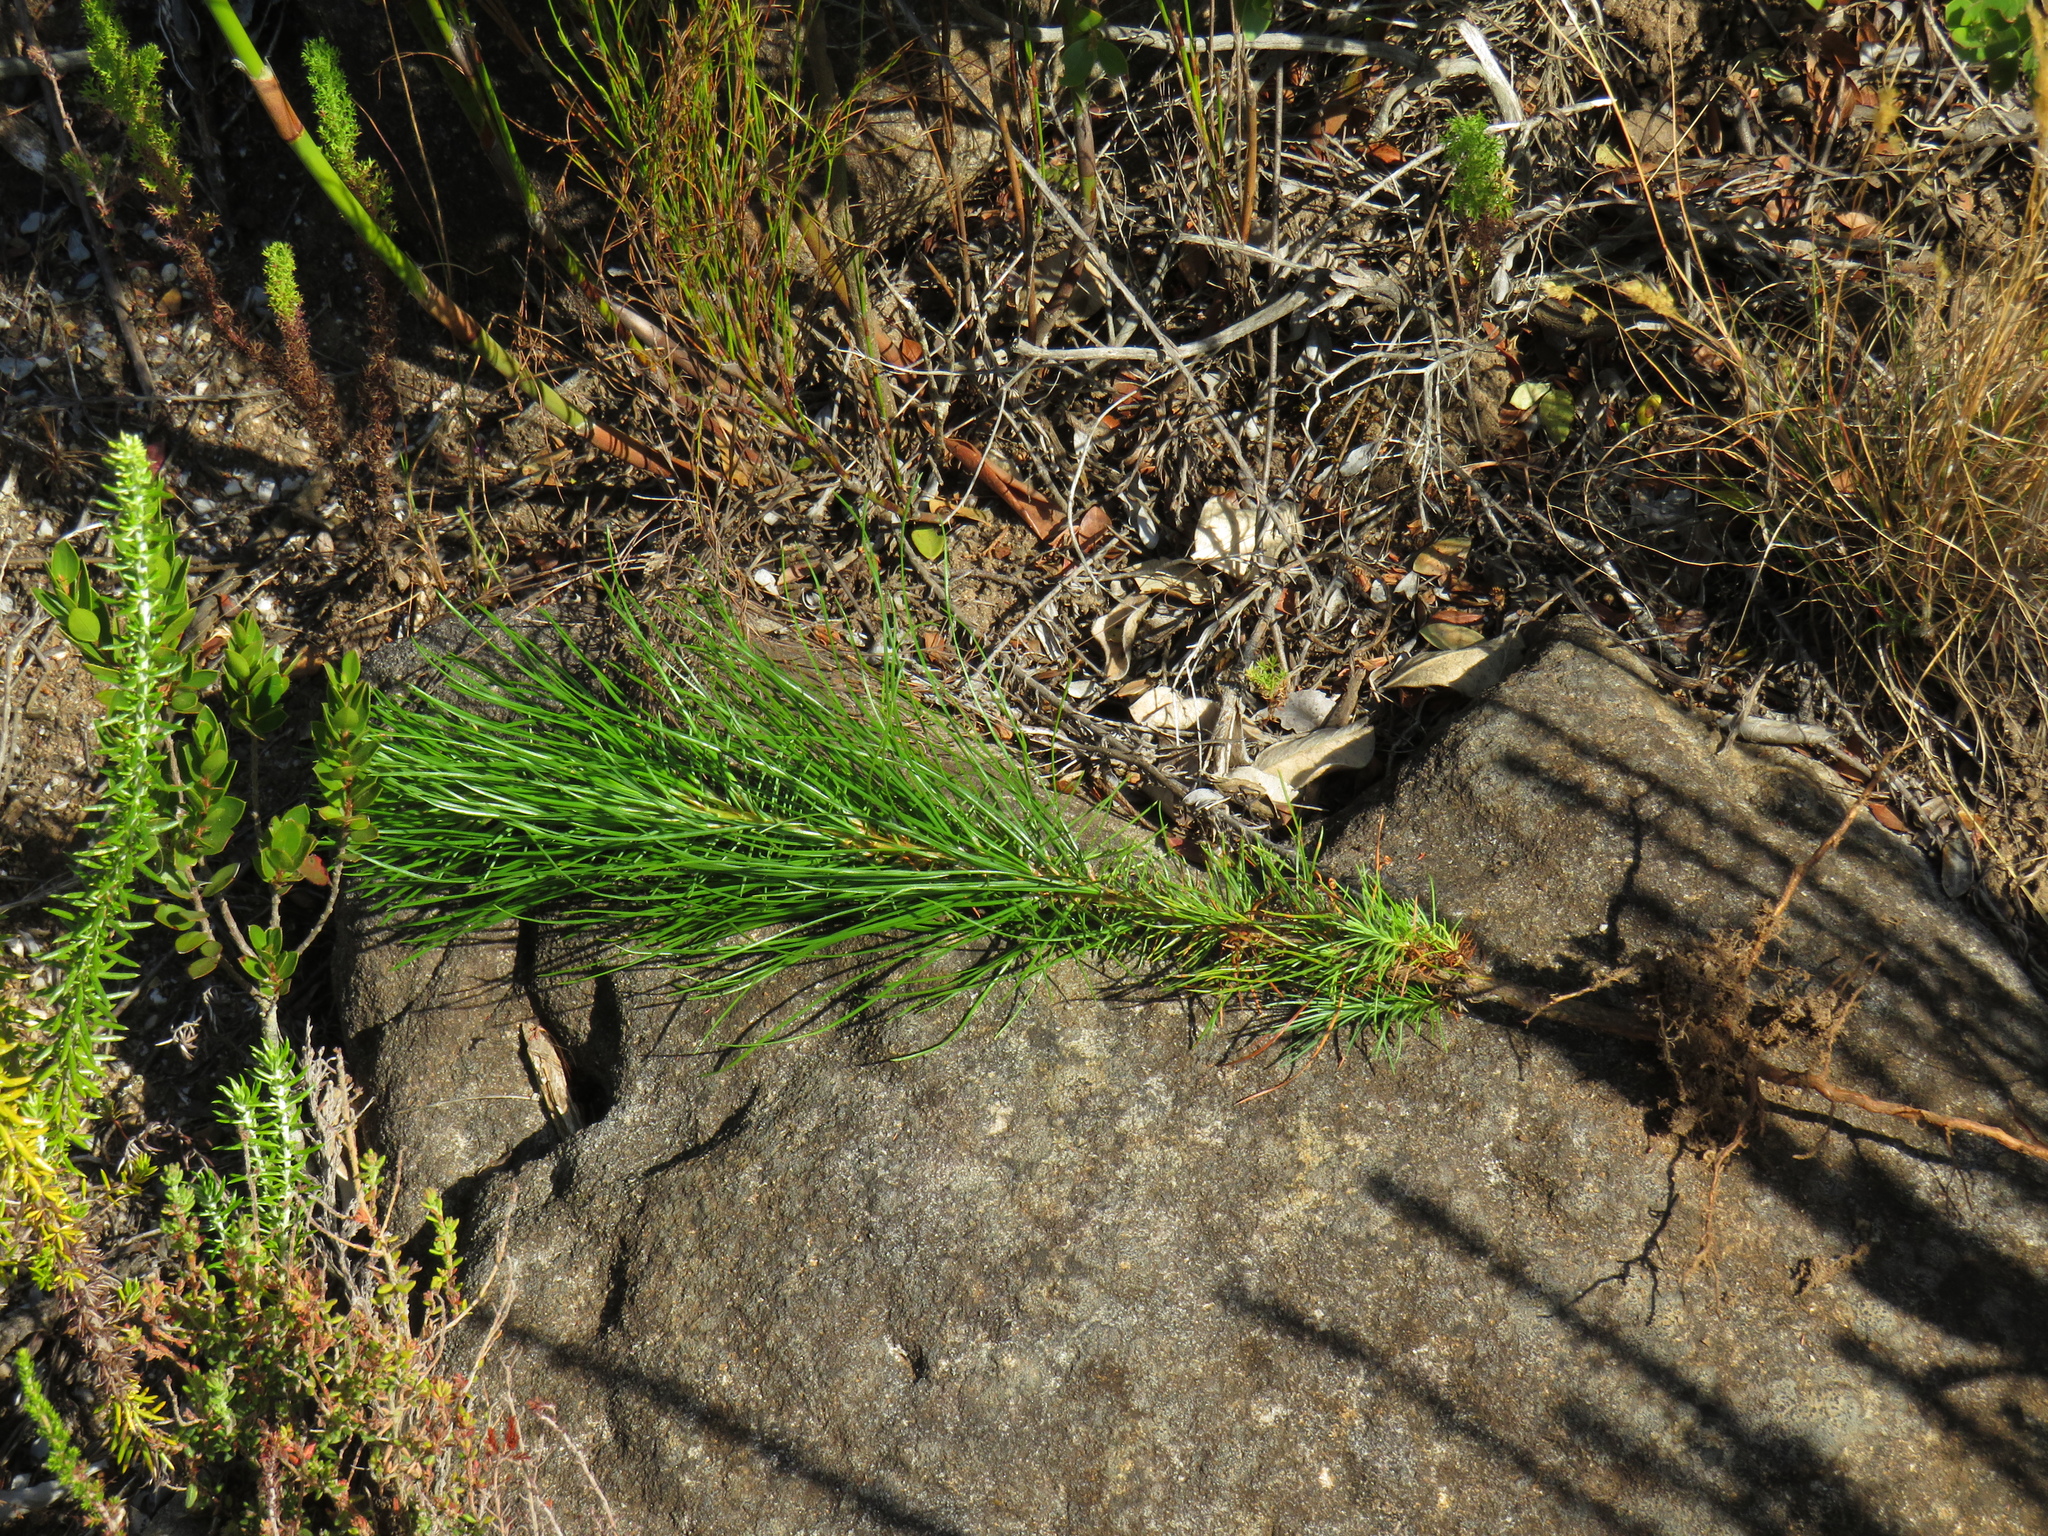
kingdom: Plantae
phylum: Tracheophyta
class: Pinopsida
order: Pinales
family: Pinaceae
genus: Pinus
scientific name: Pinus radiata
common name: Monterey pine
